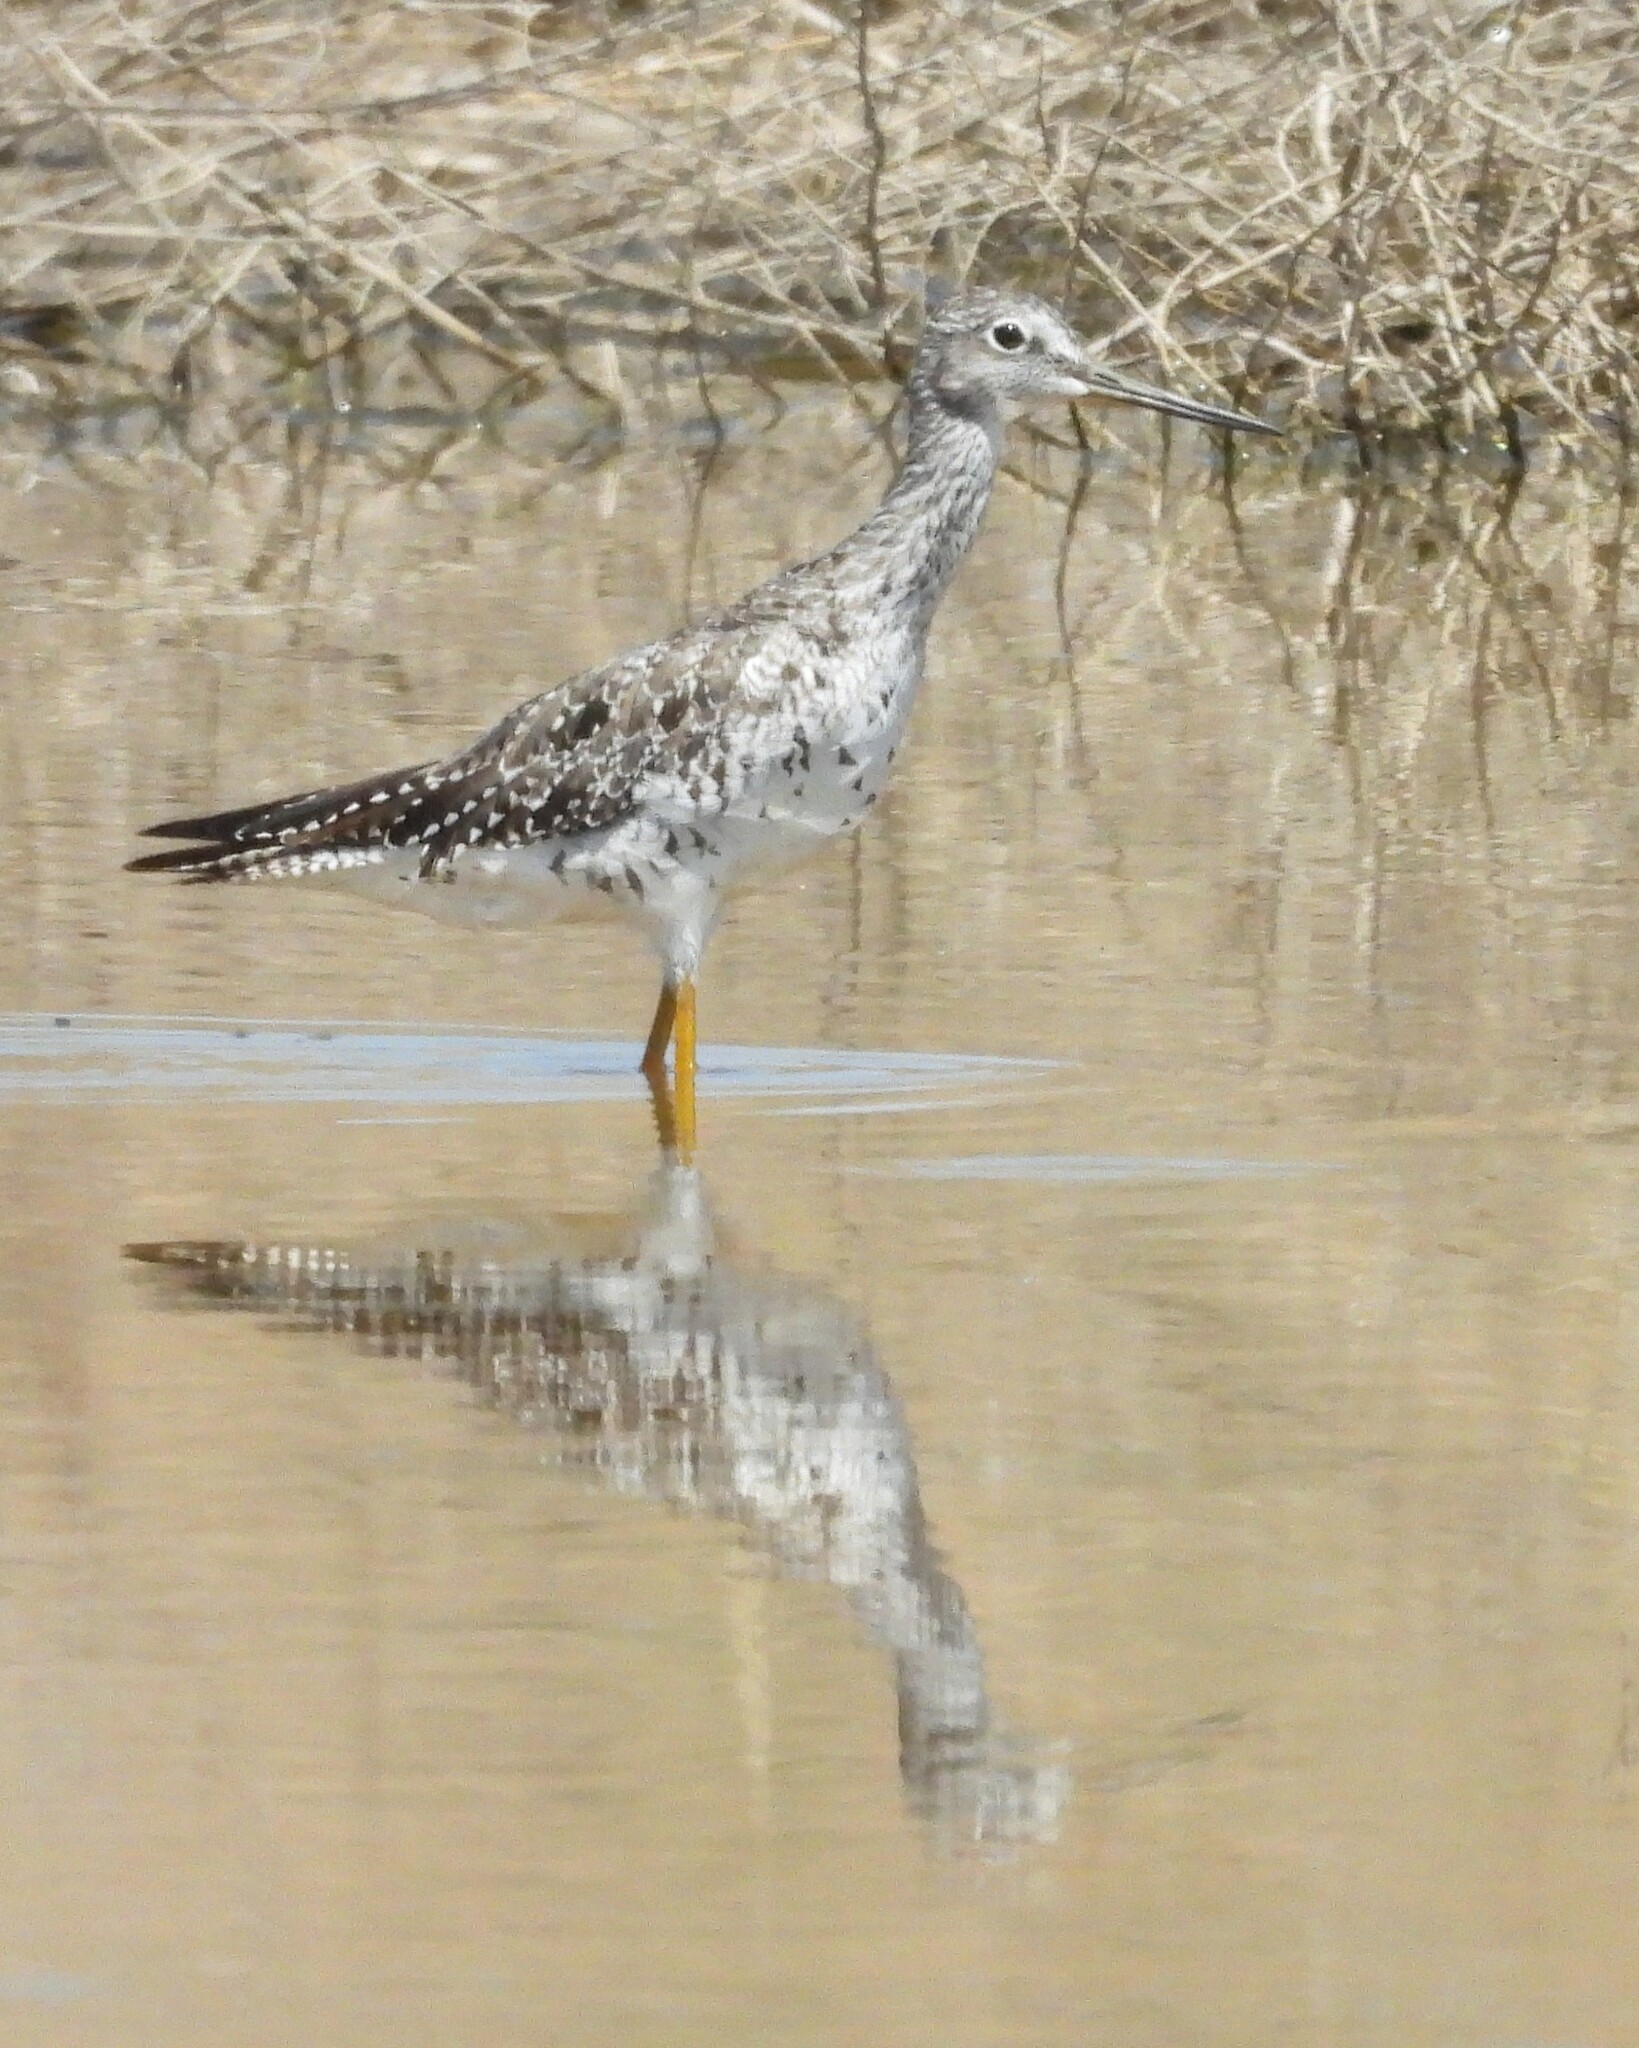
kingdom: Animalia
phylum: Chordata
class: Aves
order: Charadriiformes
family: Scolopacidae
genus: Tringa
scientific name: Tringa melanoleuca
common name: Greater yellowlegs
